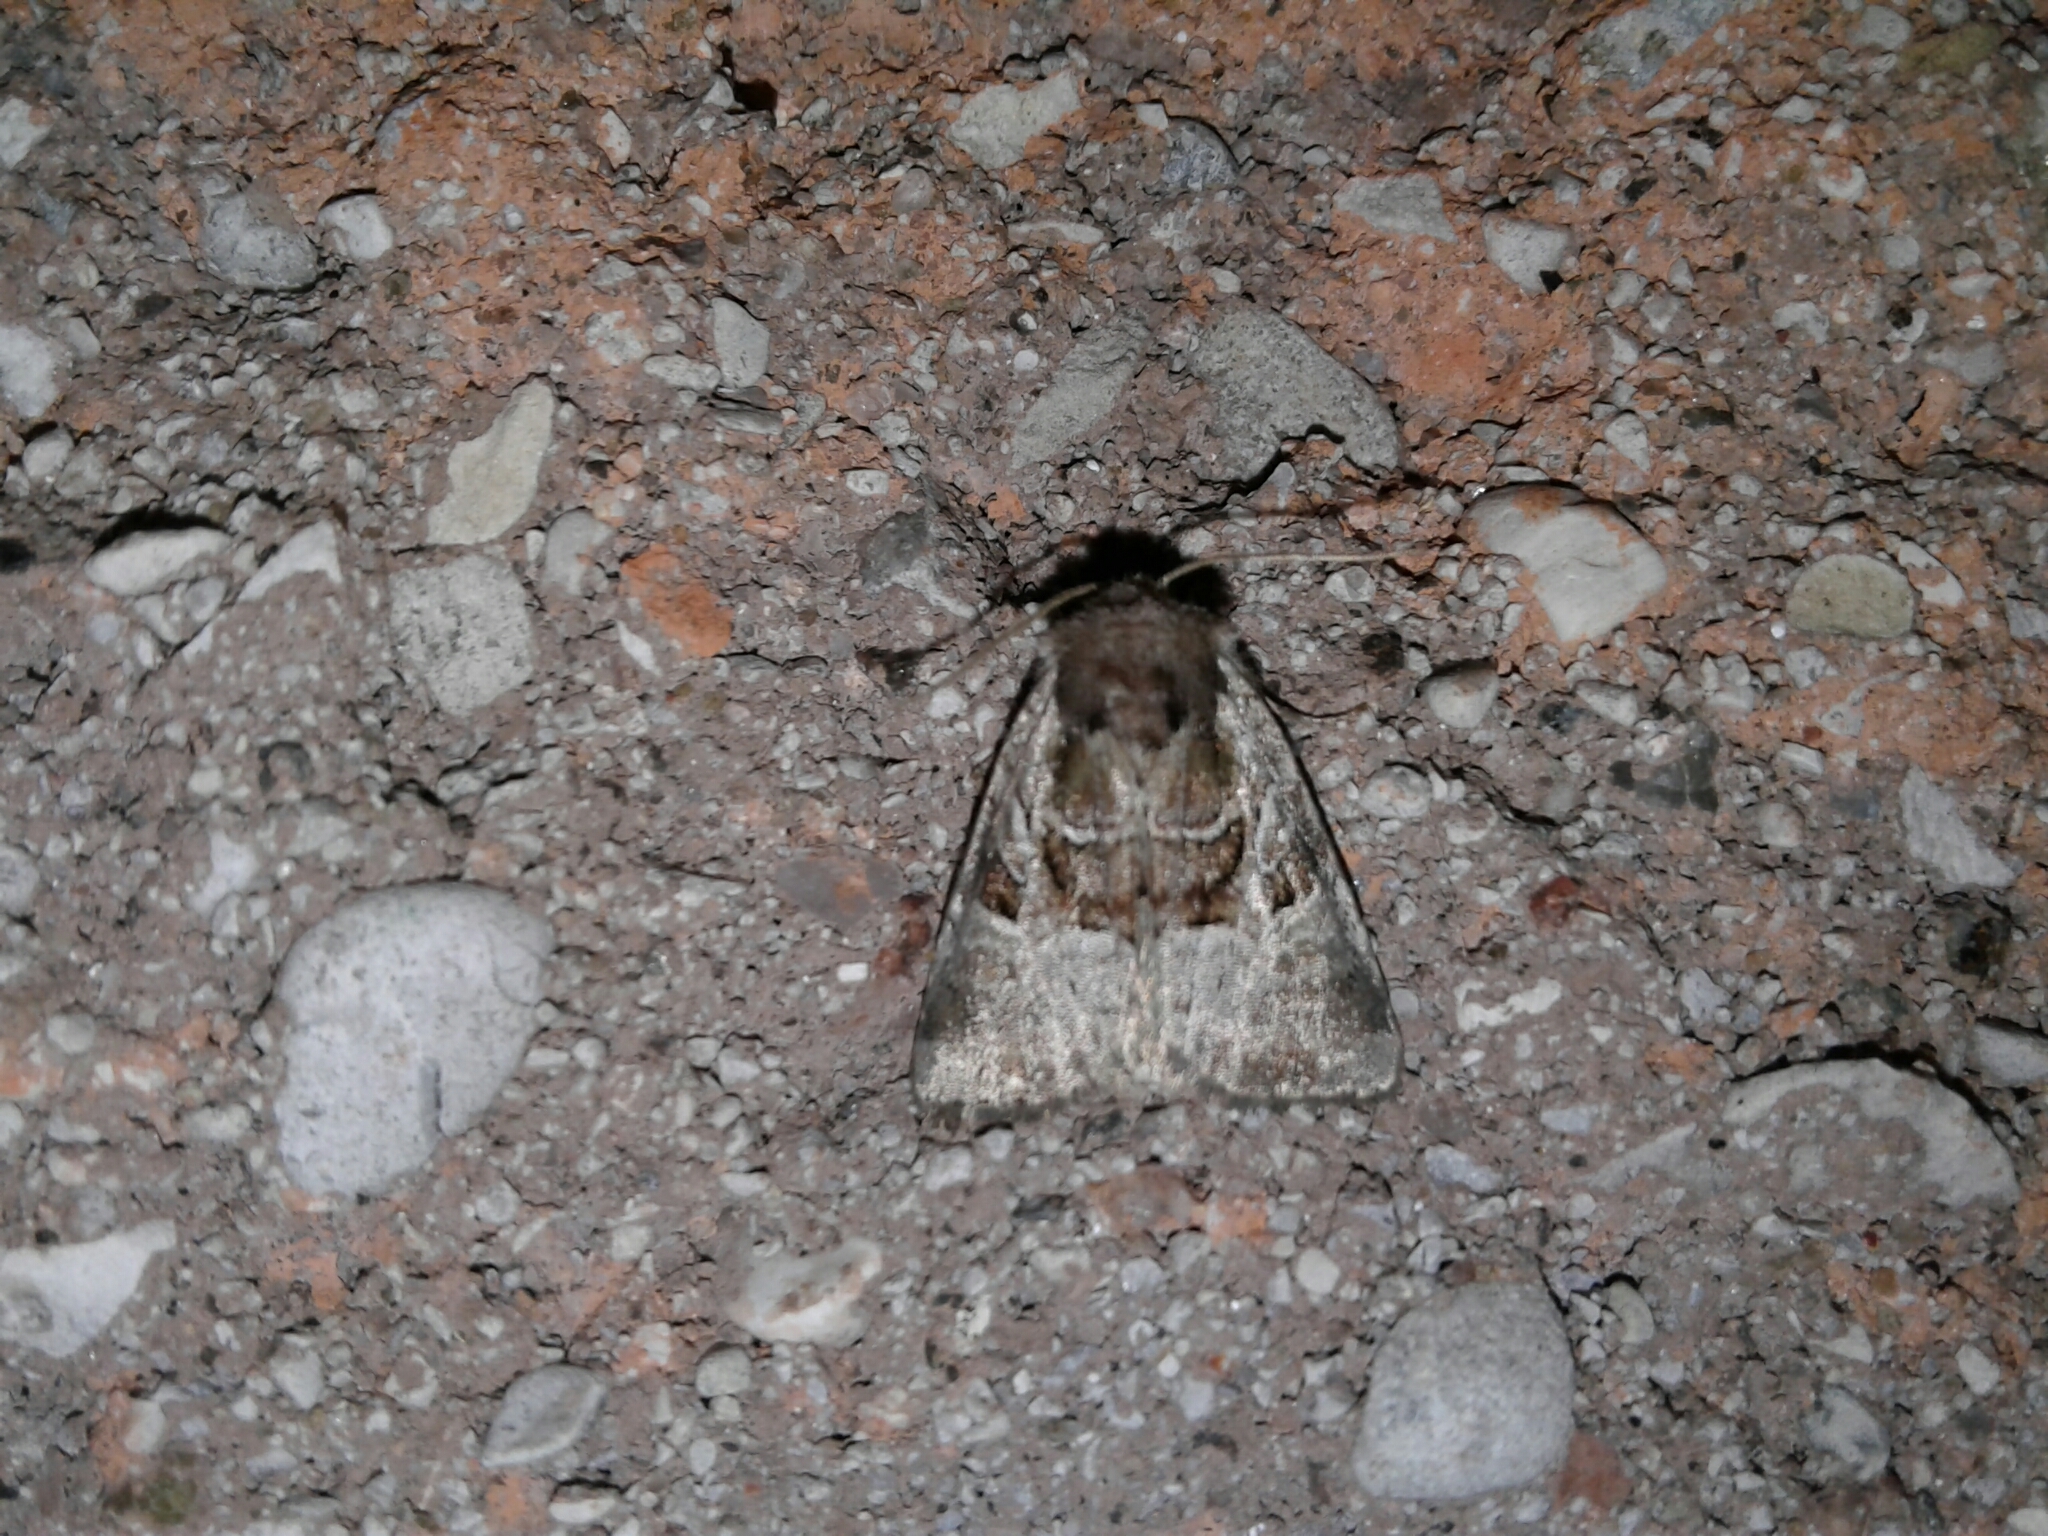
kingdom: Animalia
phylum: Arthropoda
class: Insecta
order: Lepidoptera
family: Noctuidae
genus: Meropleon
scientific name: Meropleon ambifusca
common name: Newman's brocade
